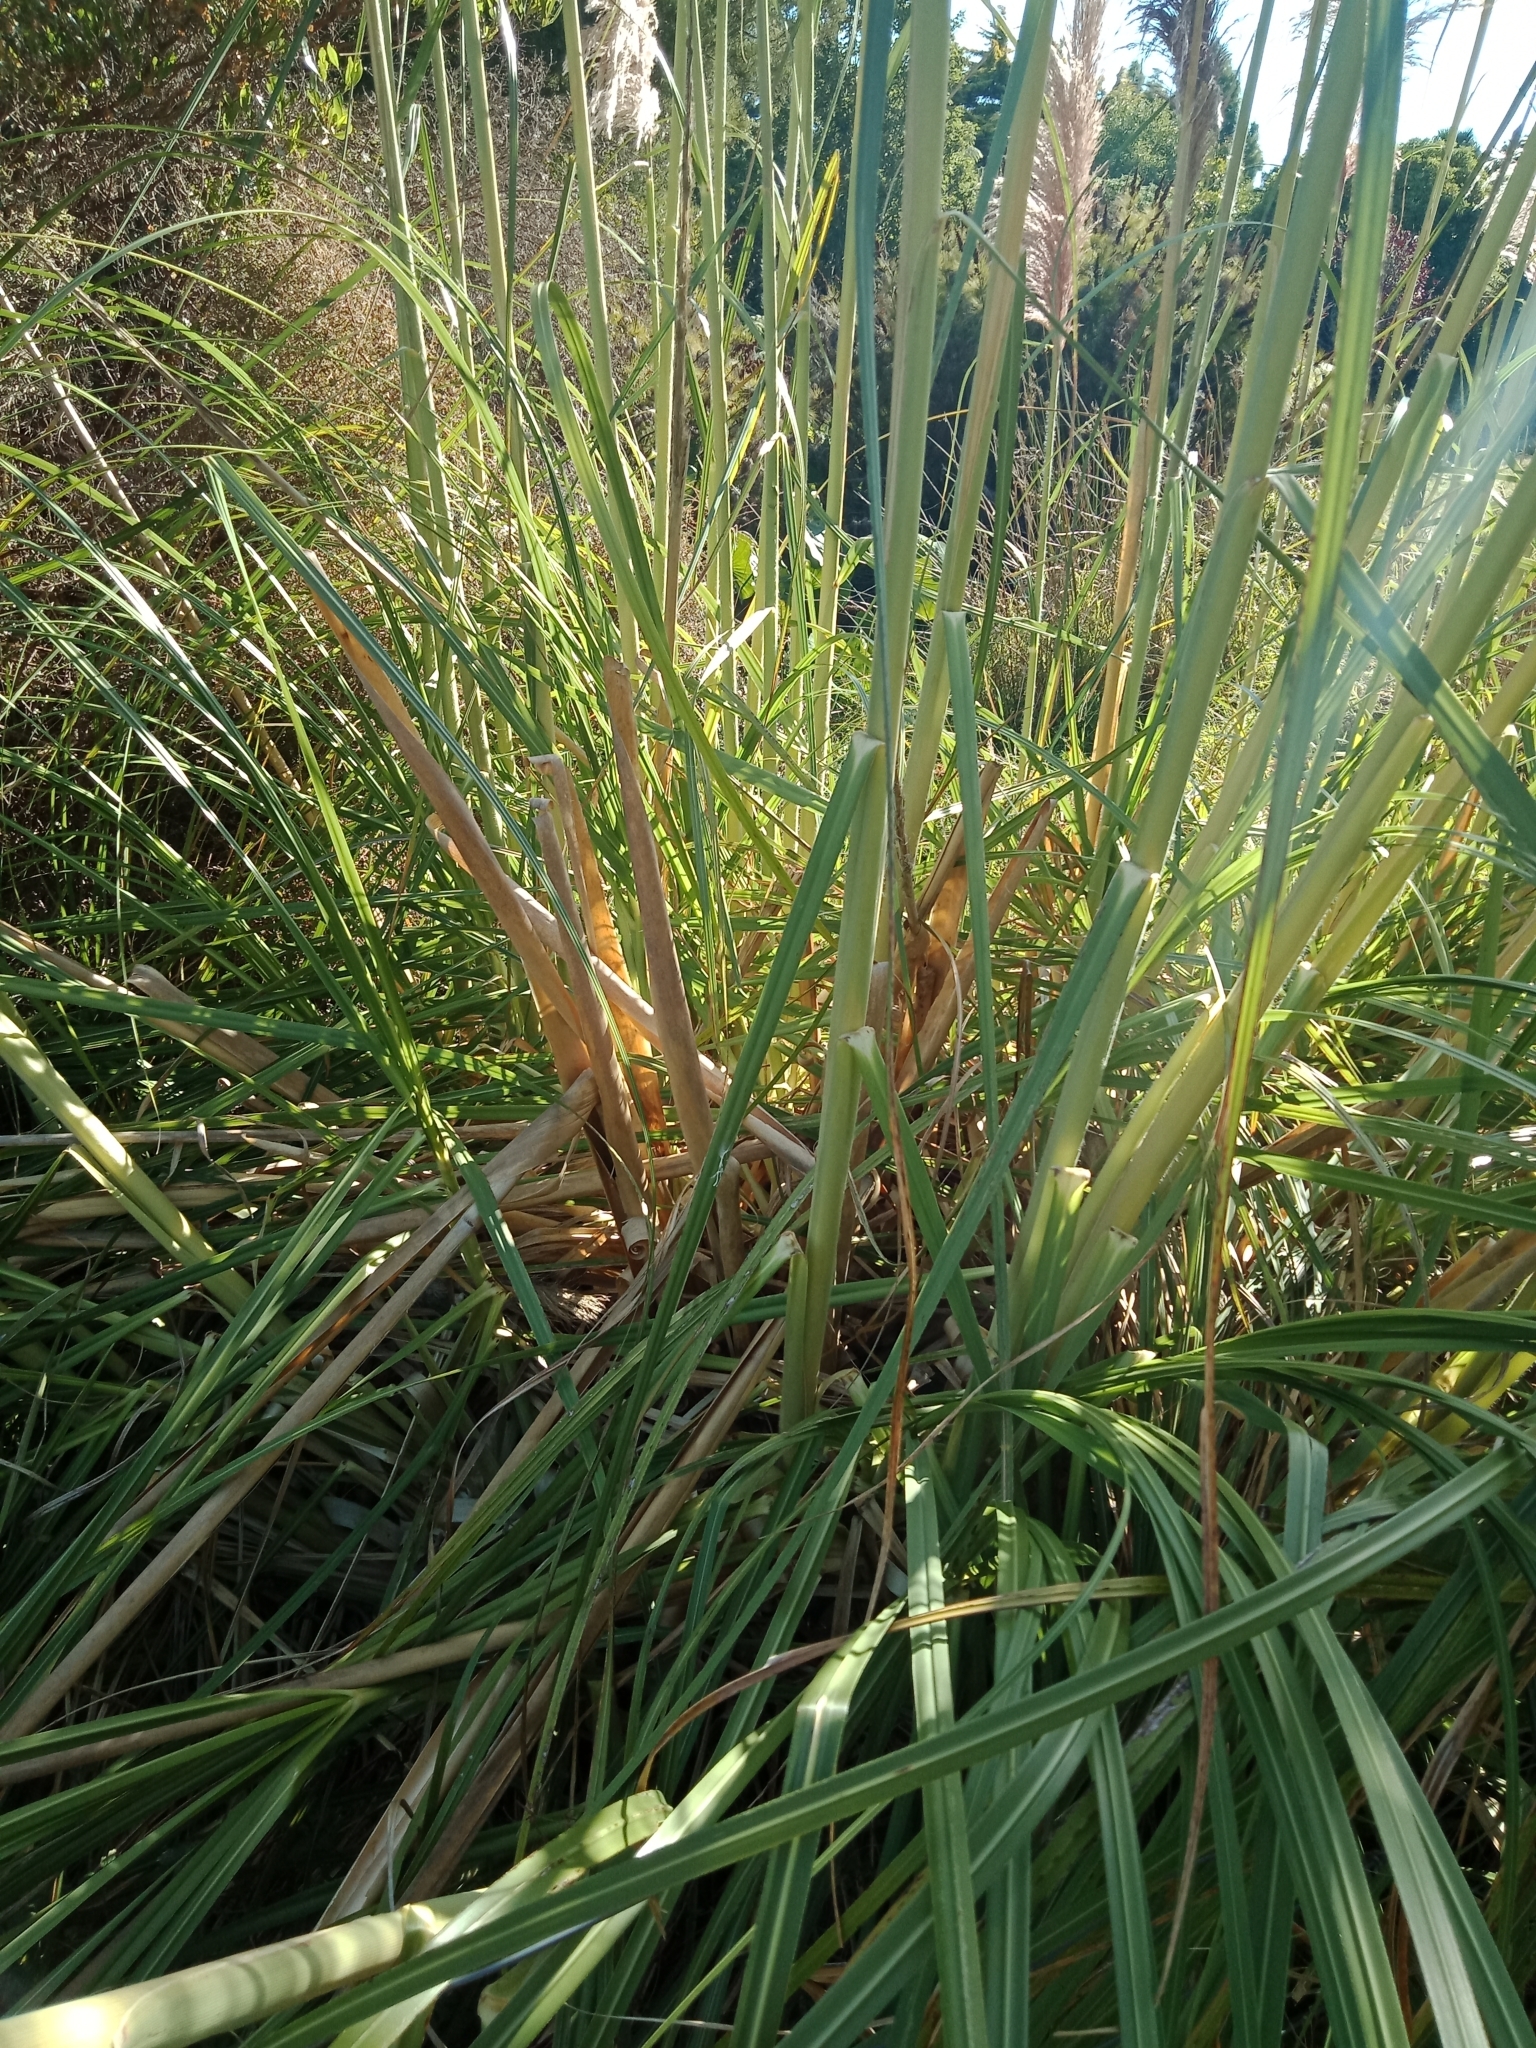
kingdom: Plantae
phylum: Tracheophyta
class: Liliopsida
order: Poales
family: Poaceae
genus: Cortaderia
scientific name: Cortaderia selloana
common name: Uruguayan pampas grass
